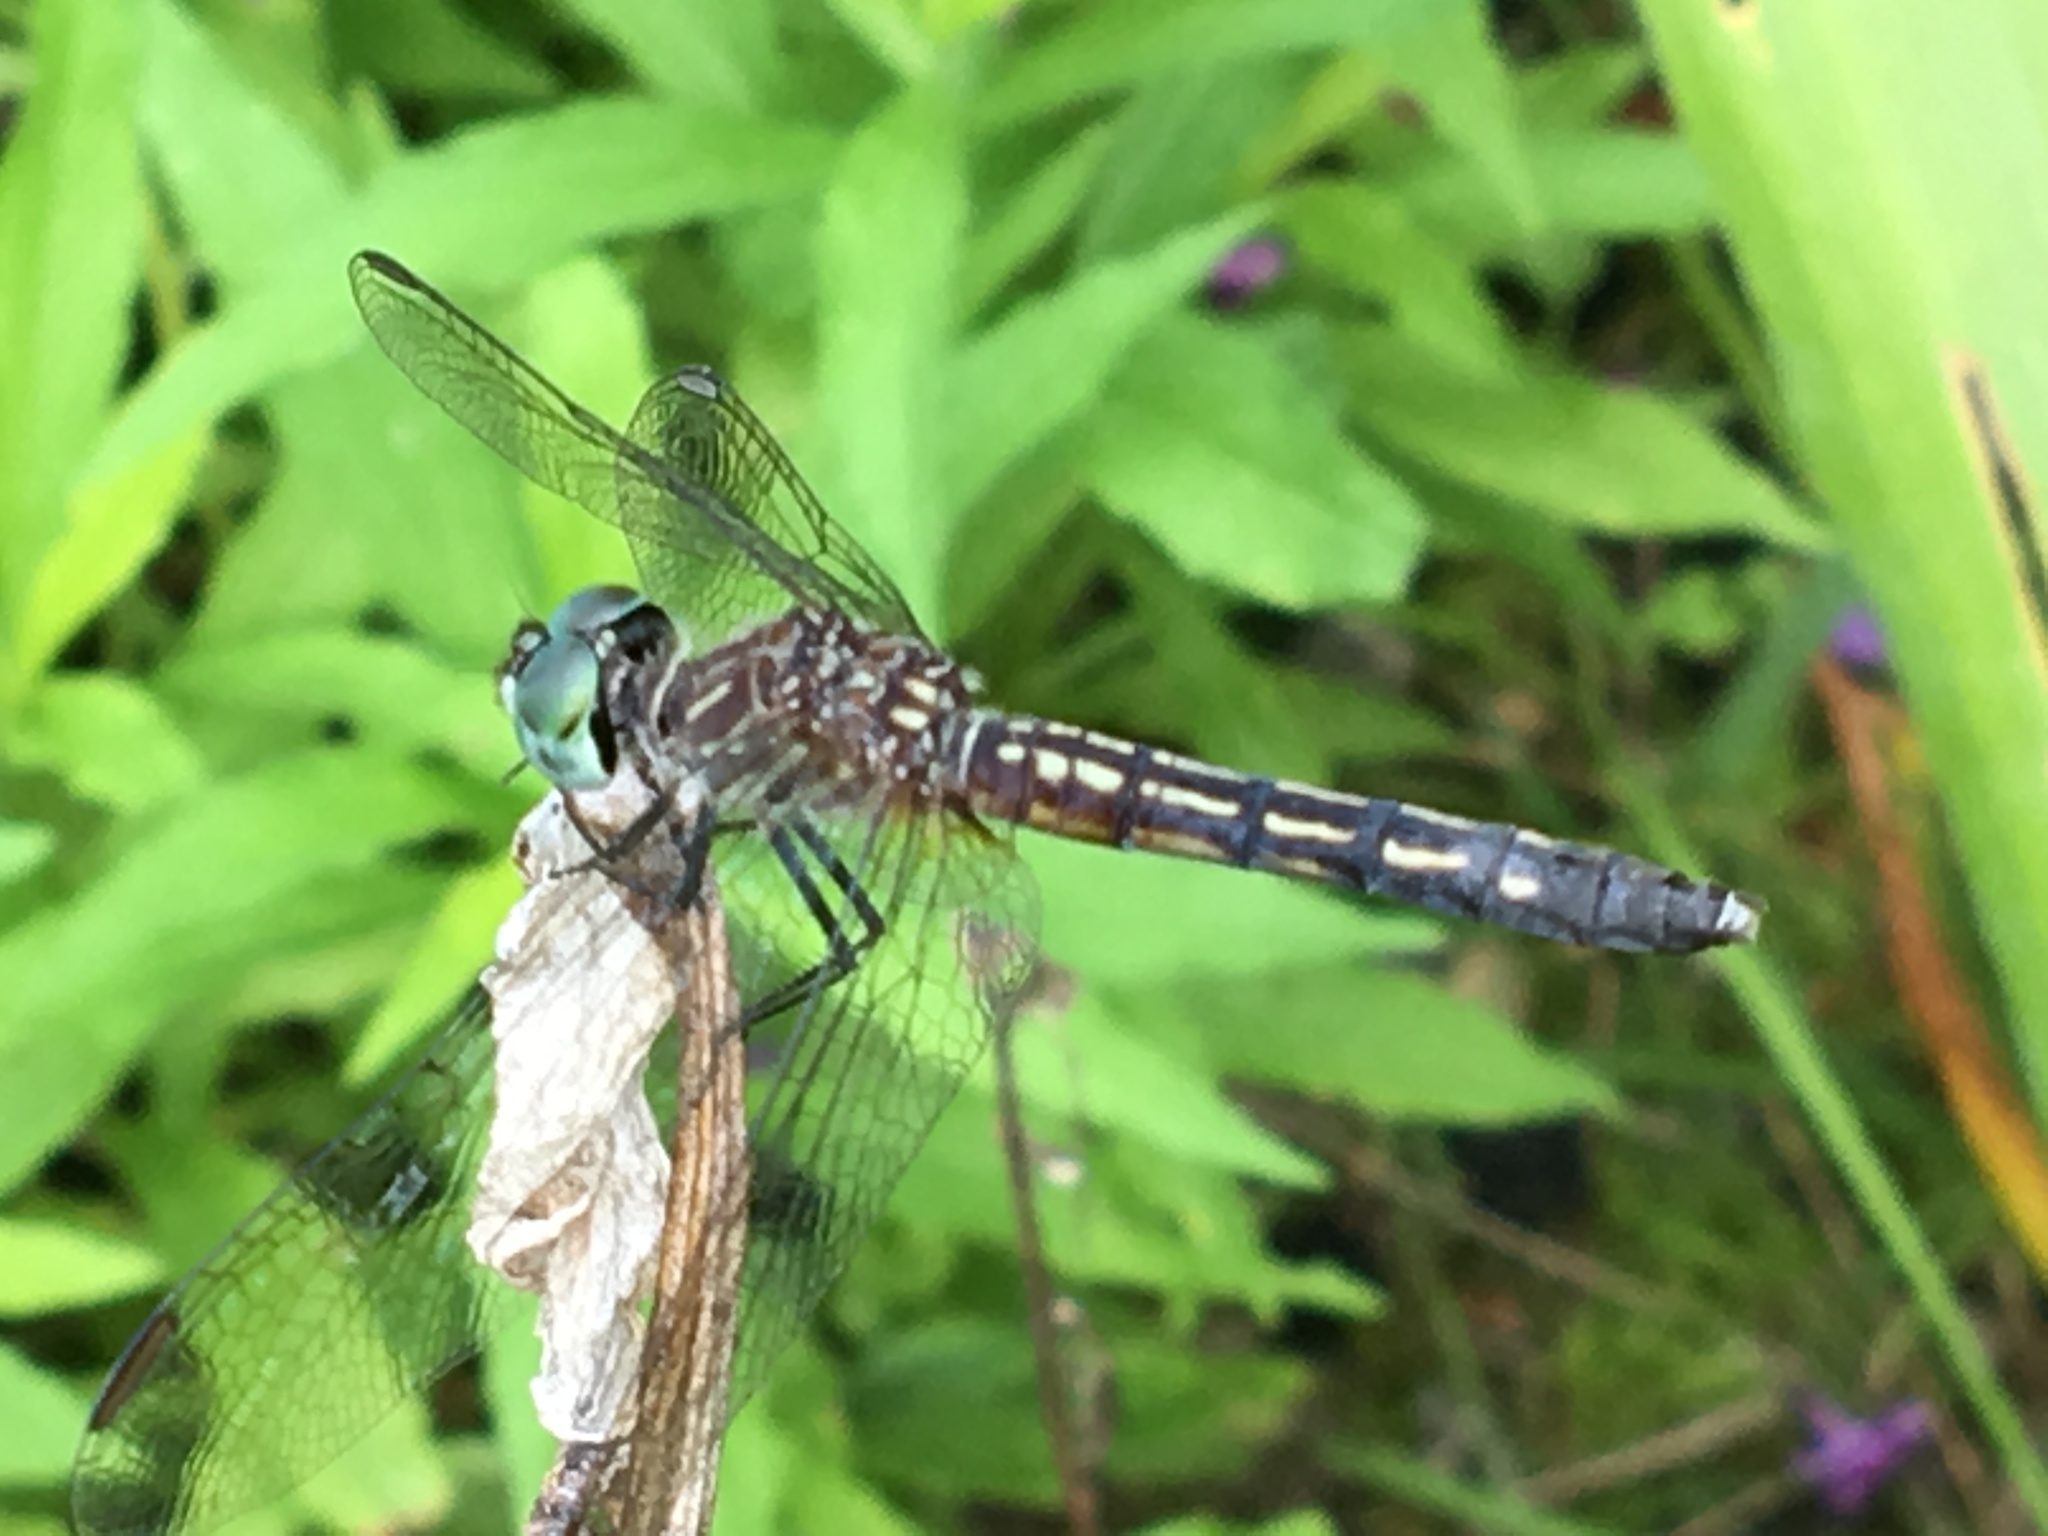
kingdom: Animalia
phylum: Arthropoda
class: Insecta
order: Odonata
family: Libellulidae
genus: Pachydiplax
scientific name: Pachydiplax longipennis
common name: Blue dasher
